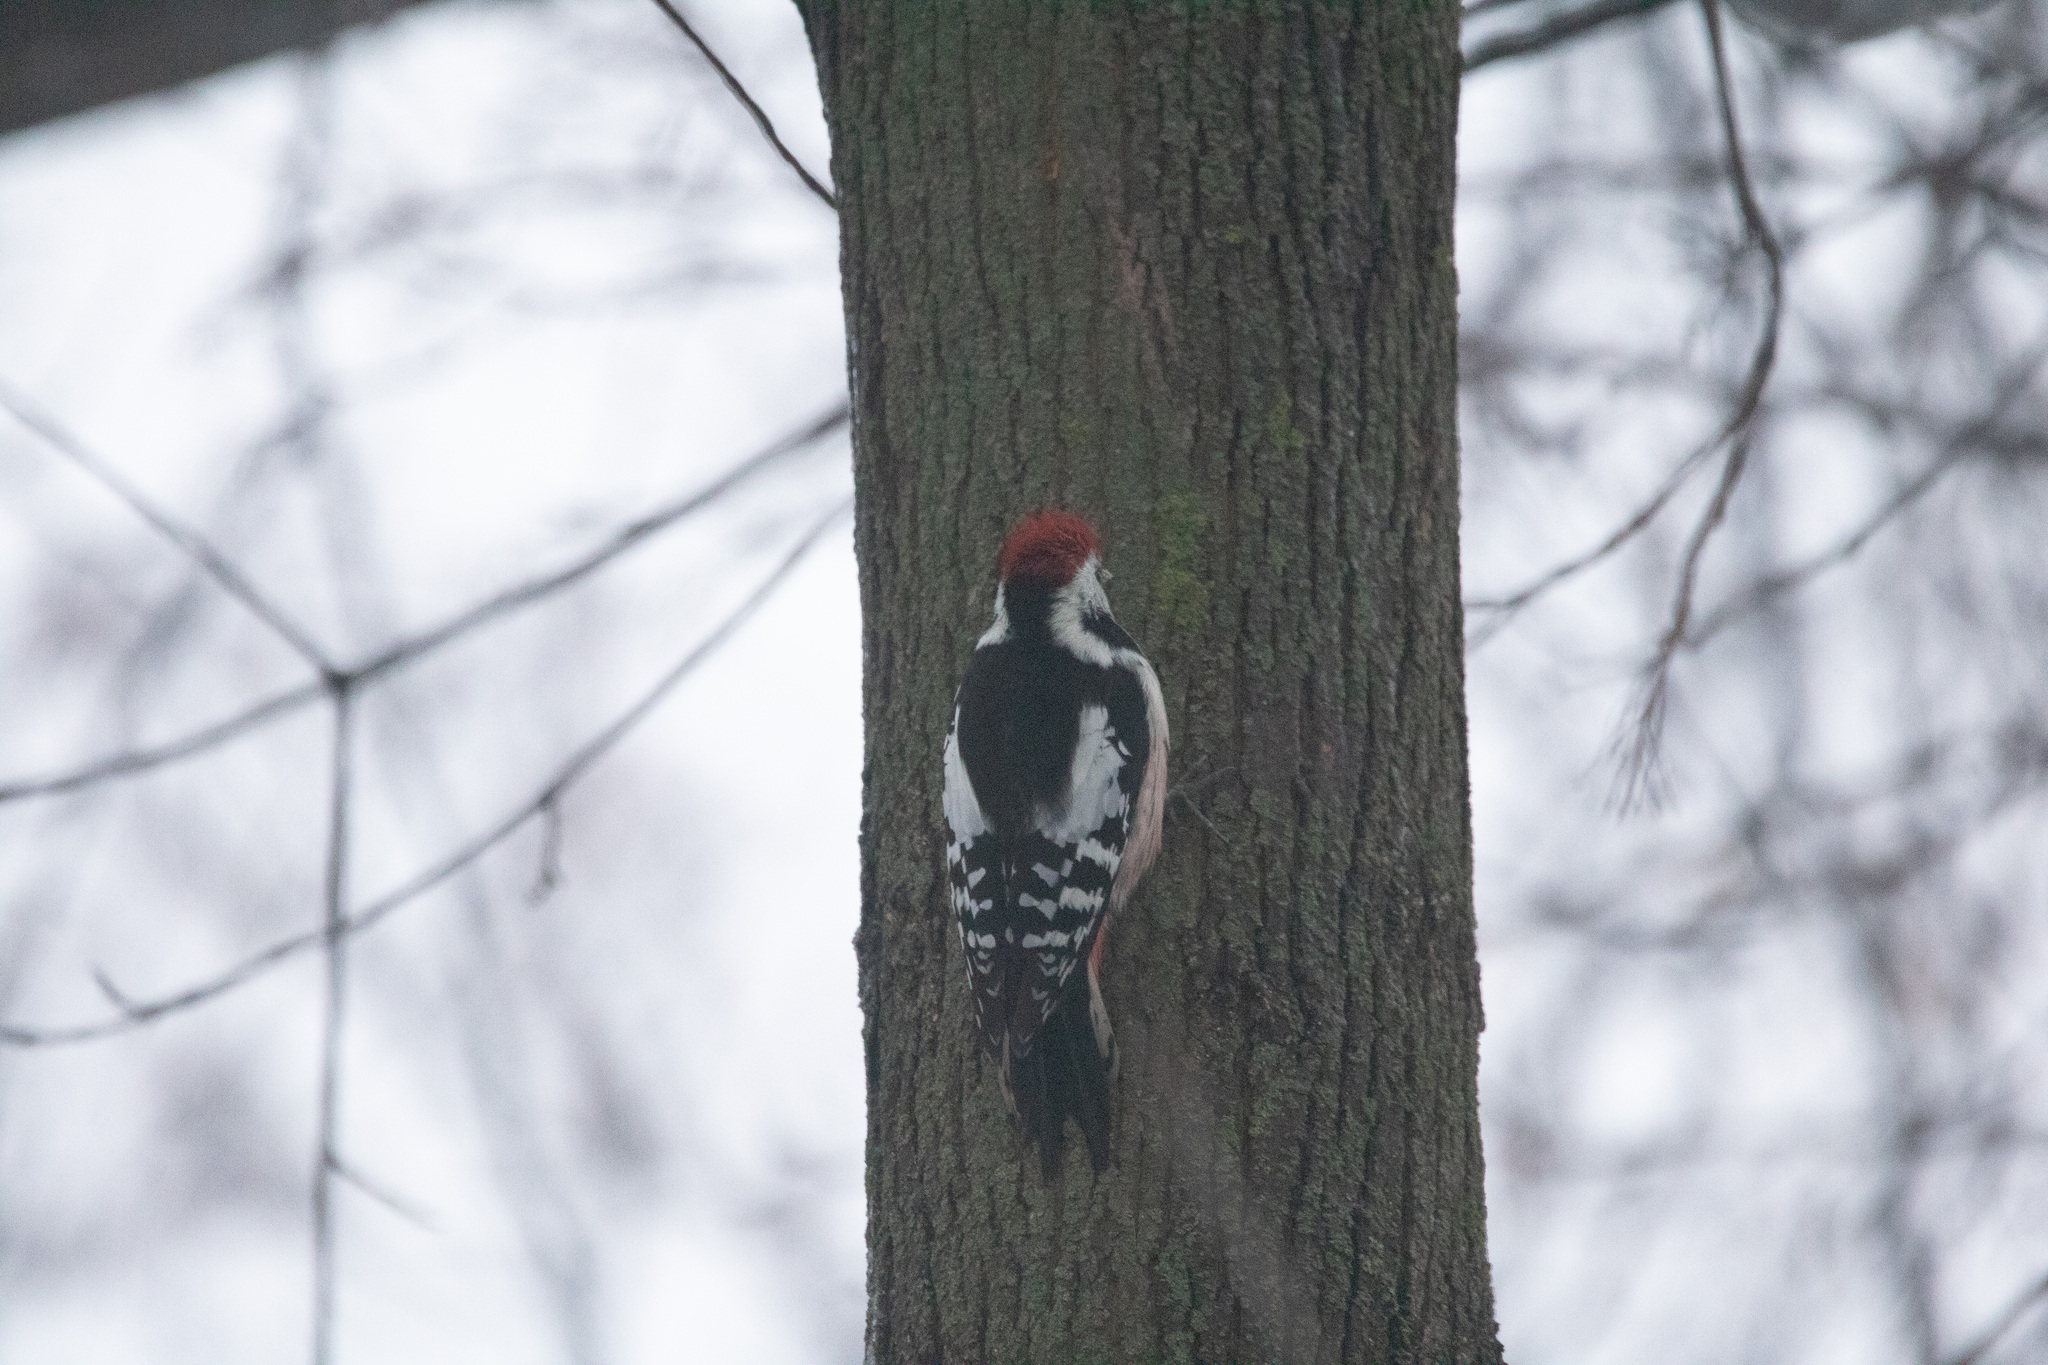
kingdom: Animalia
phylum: Chordata
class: Aves
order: Piciformes
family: Picidae
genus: Dendrocoptes
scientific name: Dendrocoptes medius
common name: Middle spotted woodpecker
